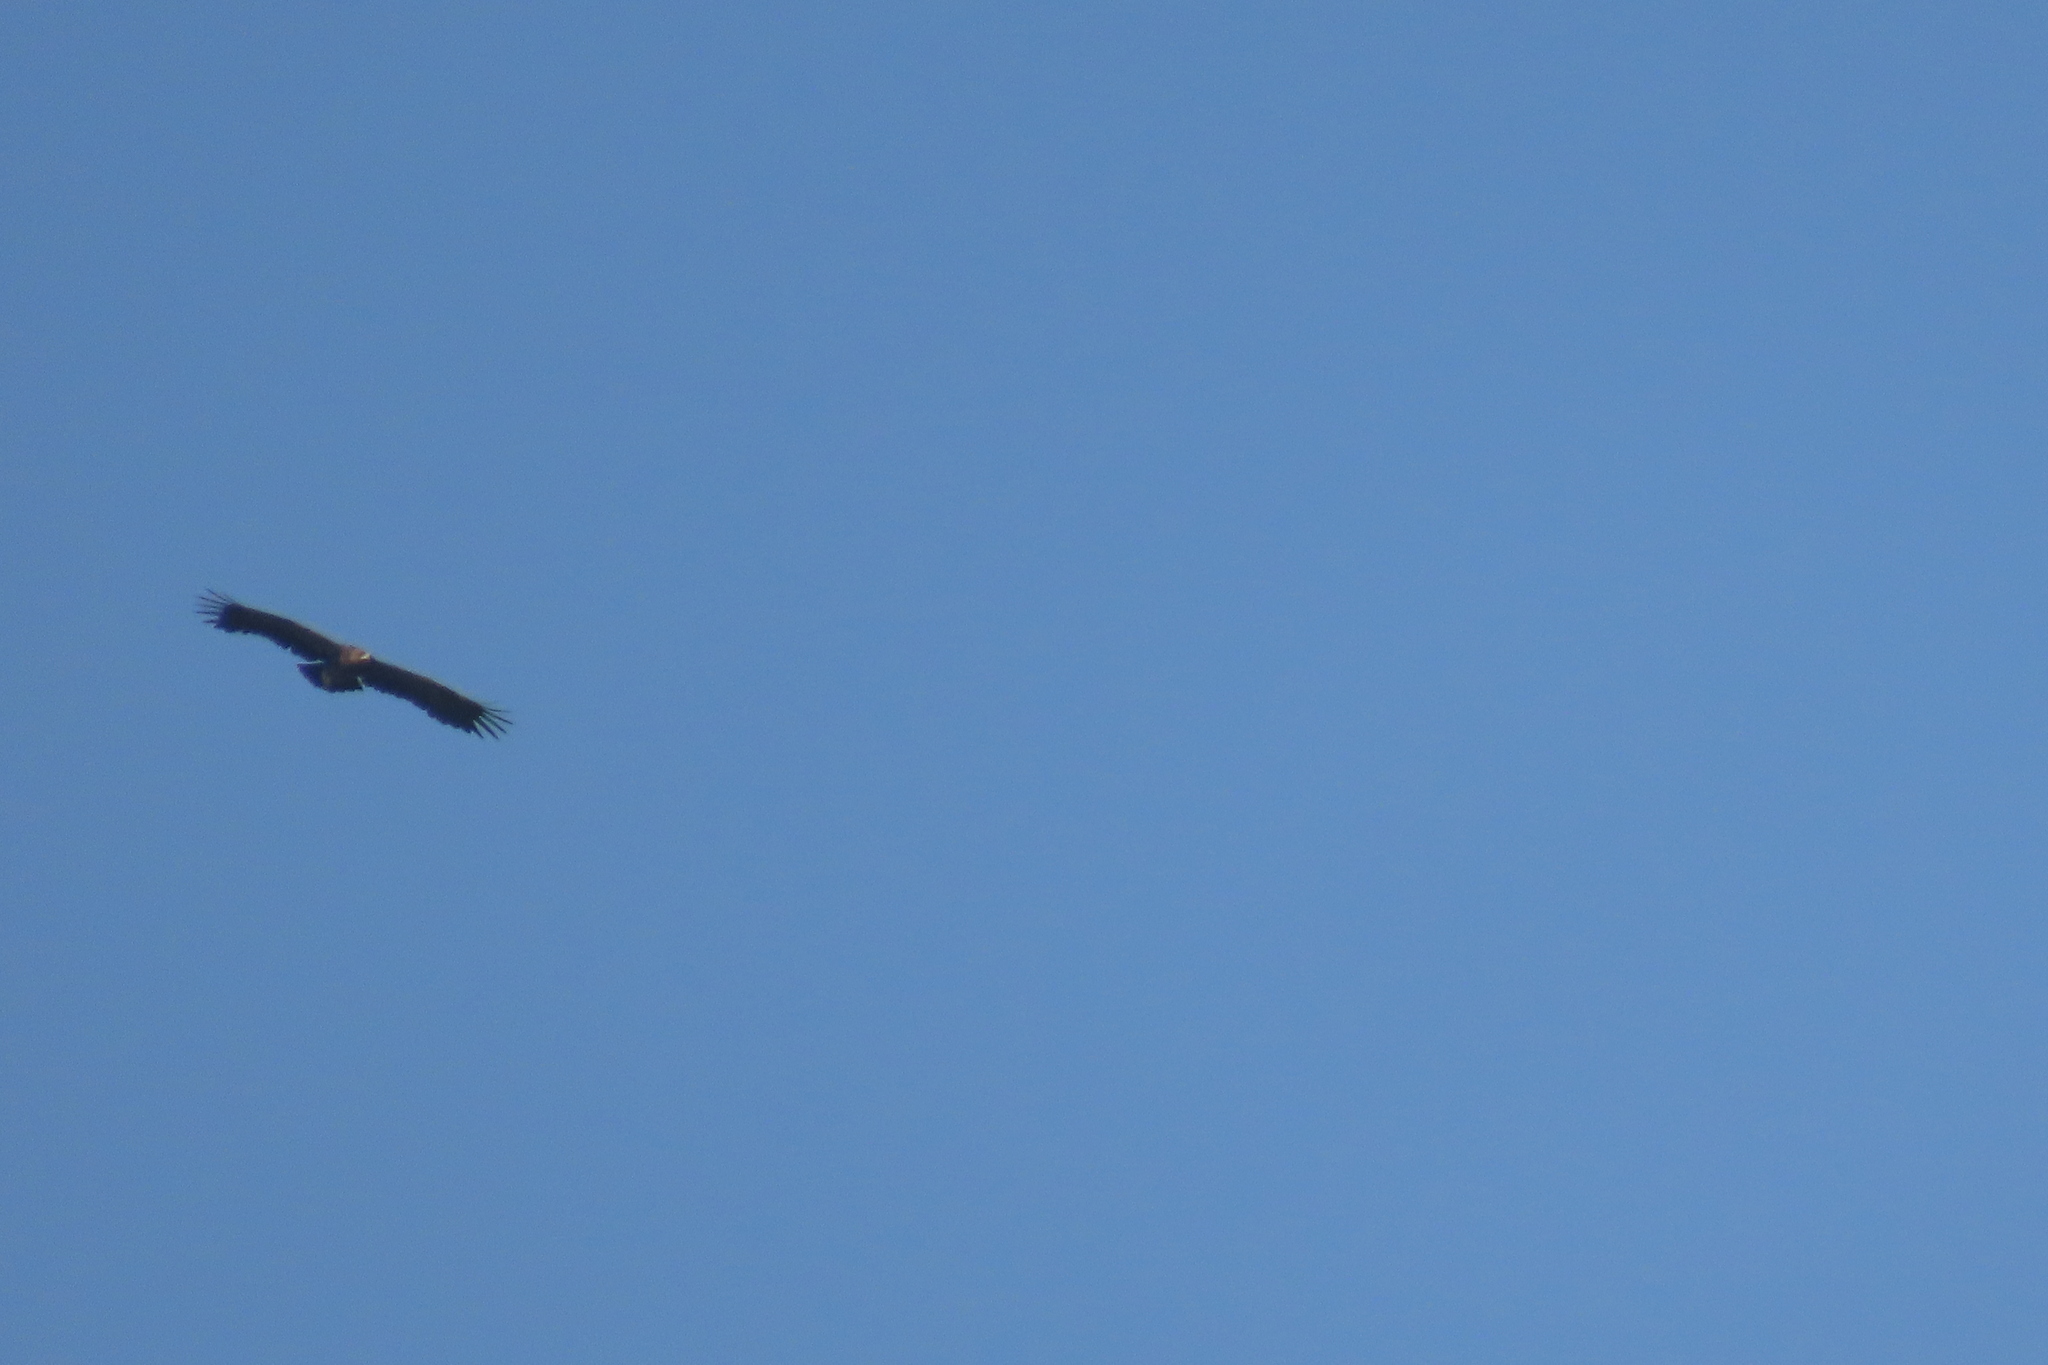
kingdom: Animalia
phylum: Chordata
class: Aves
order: Accipitriformes
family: Accipitridae
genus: Aquila
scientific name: Aquila clanga
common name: Greater spotted eagle
